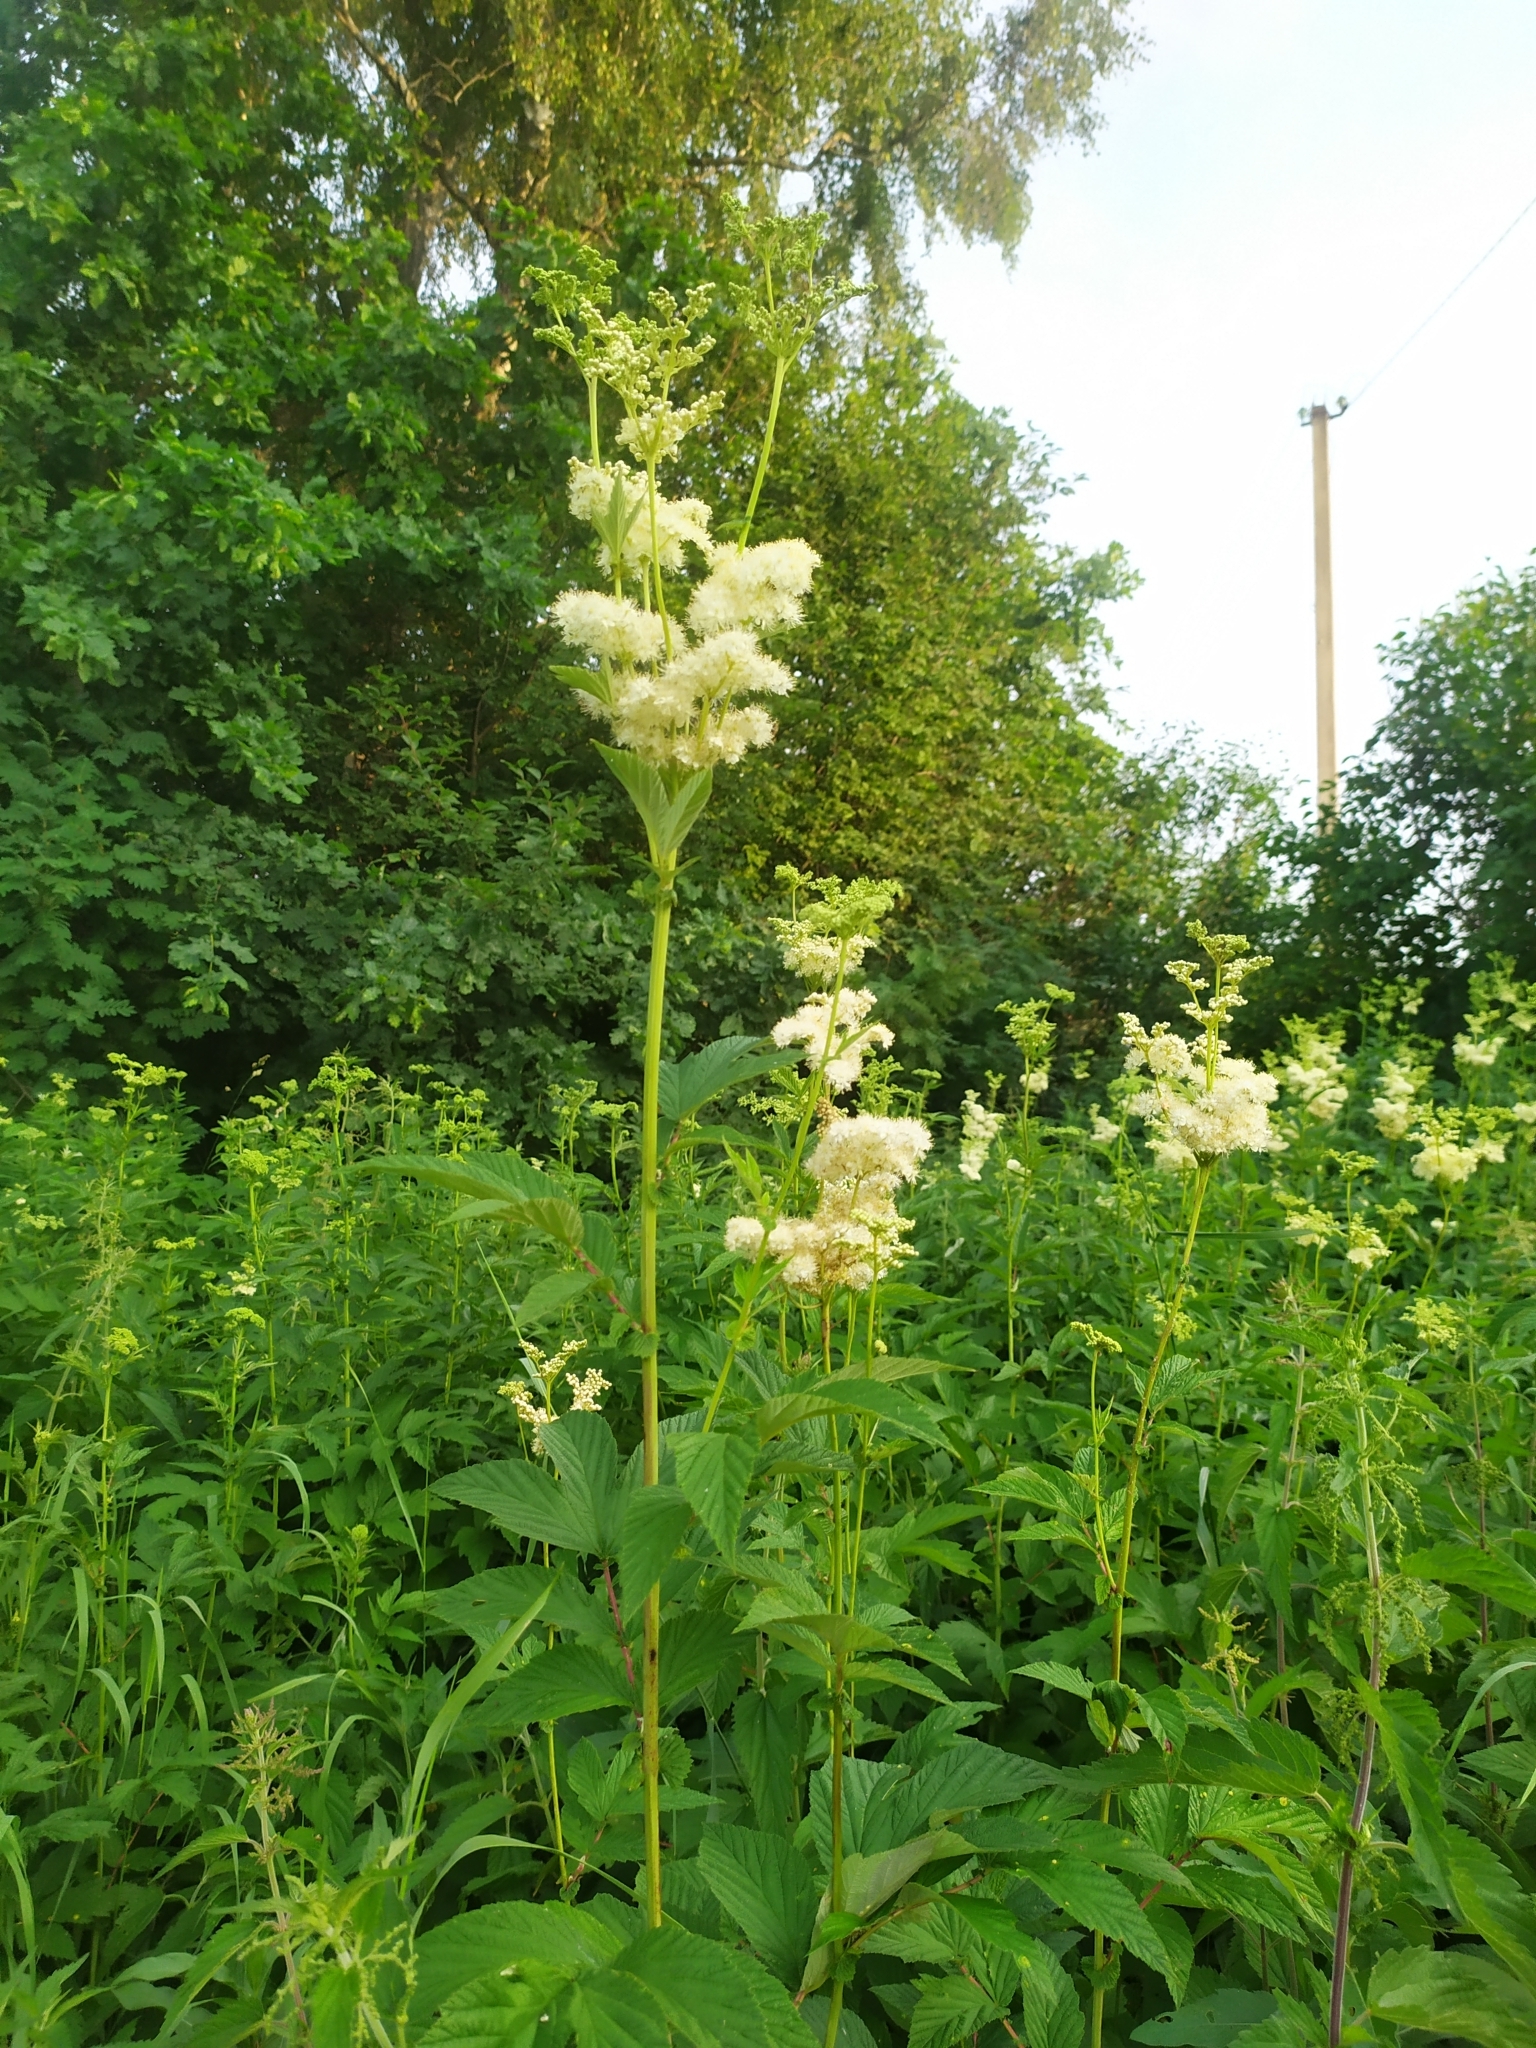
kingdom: Plantae
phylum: Tracheophyta
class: Magnoliopsida
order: Rosales
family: Rosaceae
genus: Filipendula
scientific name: Filipendula ulmaria
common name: Meadowsweet
